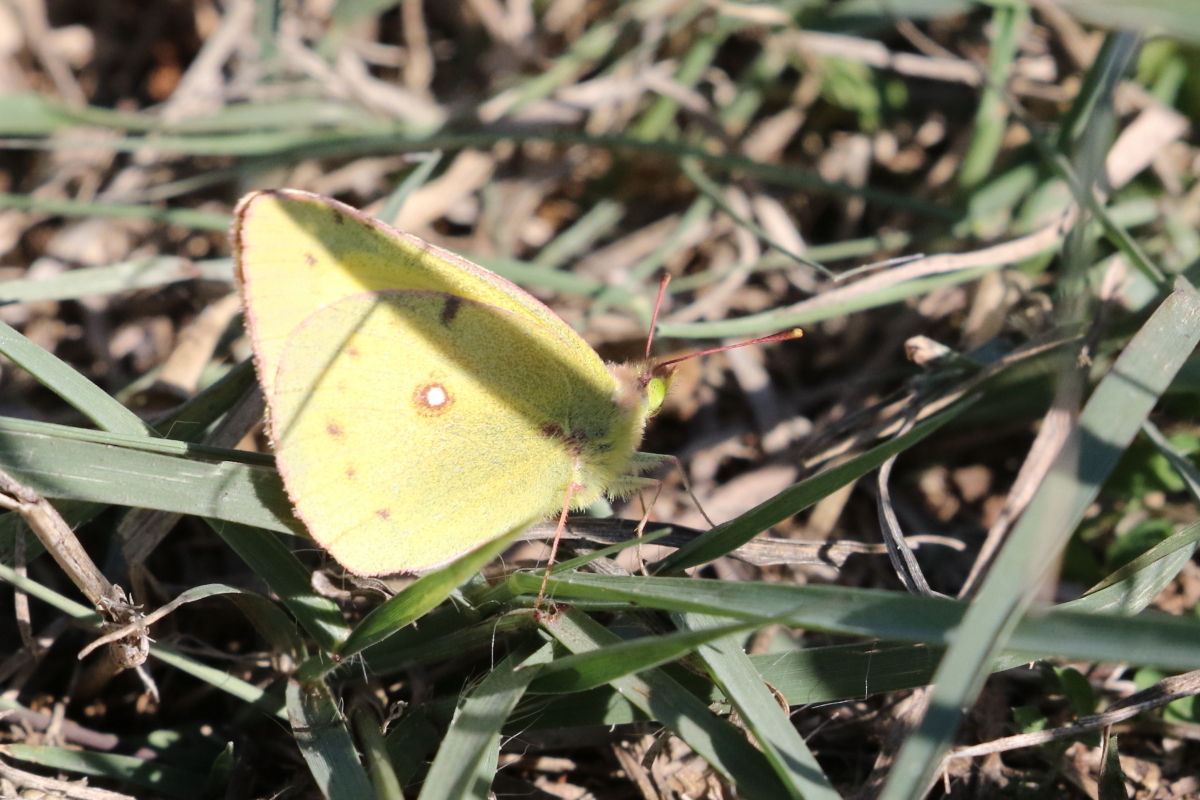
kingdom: Animalia
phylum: Arthropoda
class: Insecta
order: Lepidoptera
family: Pieridae
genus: Colias
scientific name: Colias eurytheme
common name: Alfalfa butterfly
